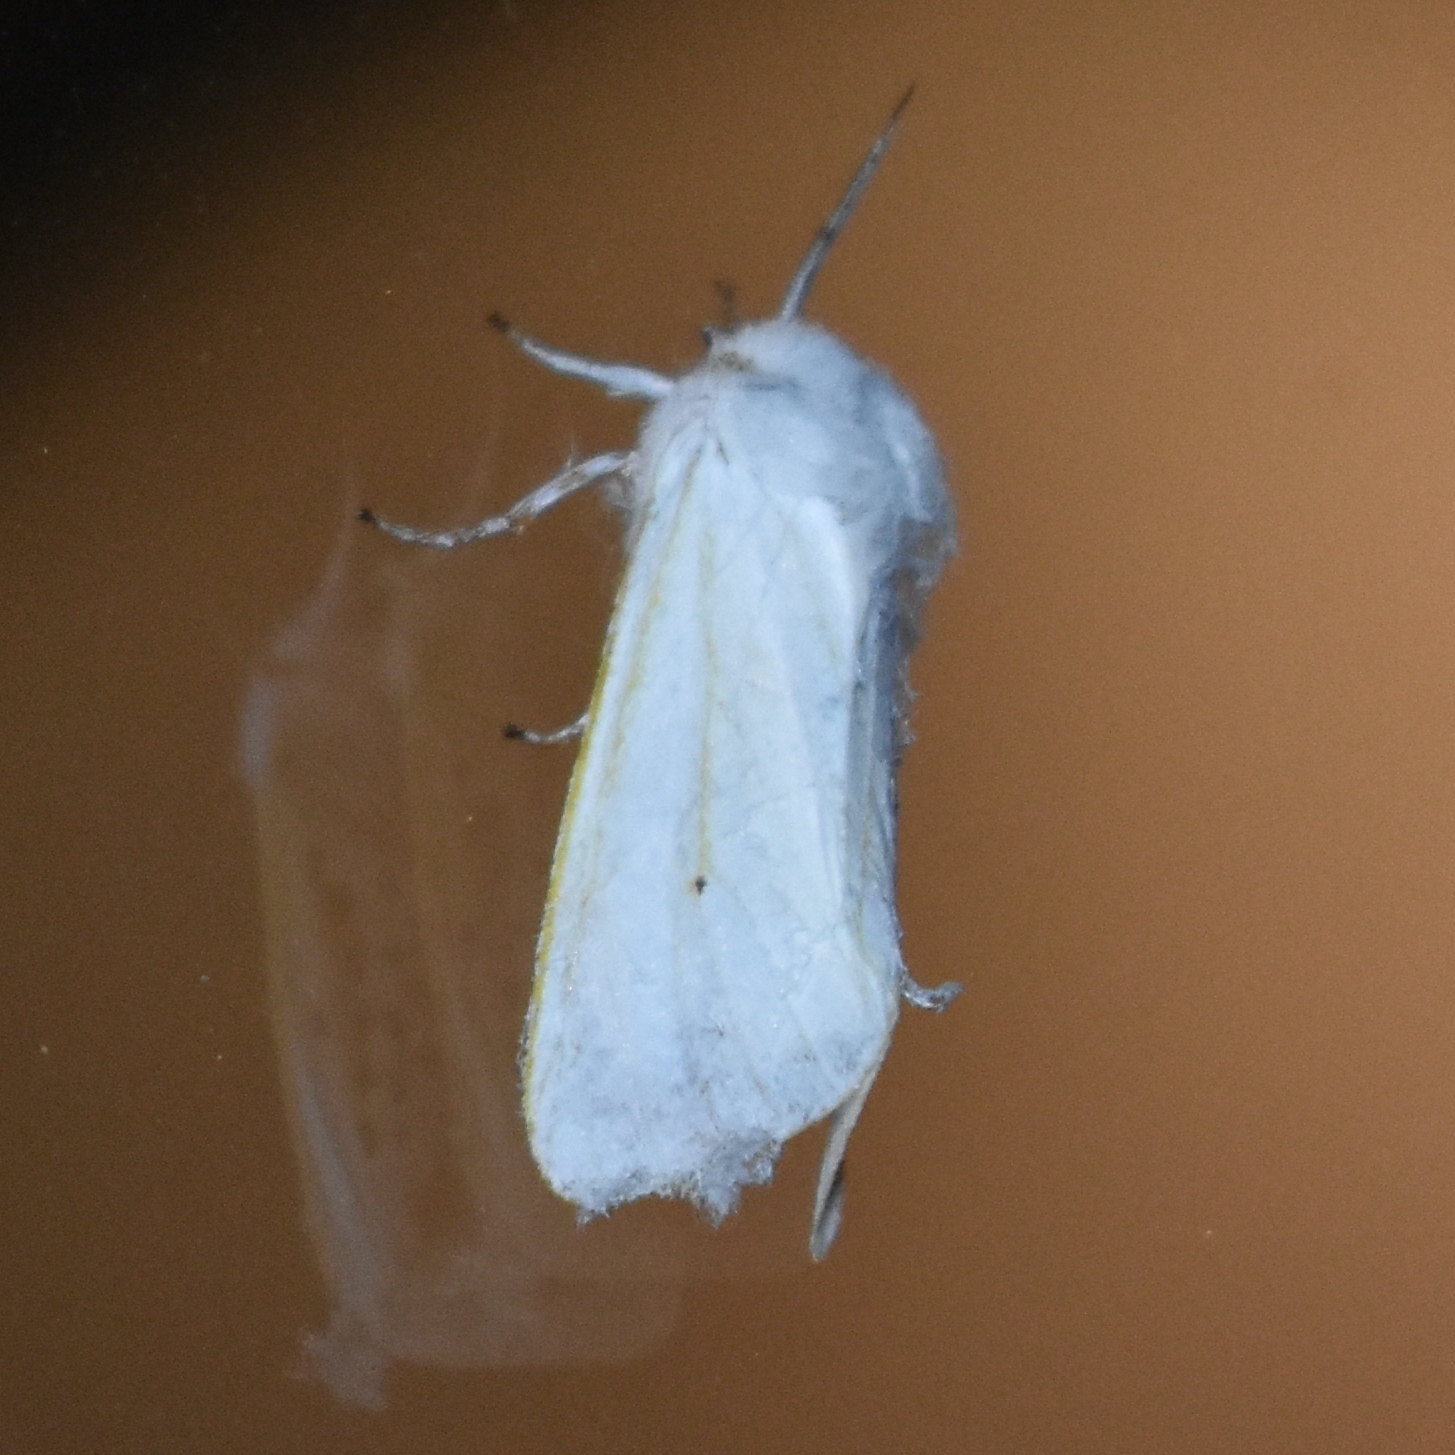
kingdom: Animalia
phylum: Arthropoda
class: Insecta
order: Lepidoptera
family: Erebidae
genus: Spilosoma
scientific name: Spilosoma virginica
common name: Virginia tiger moth
